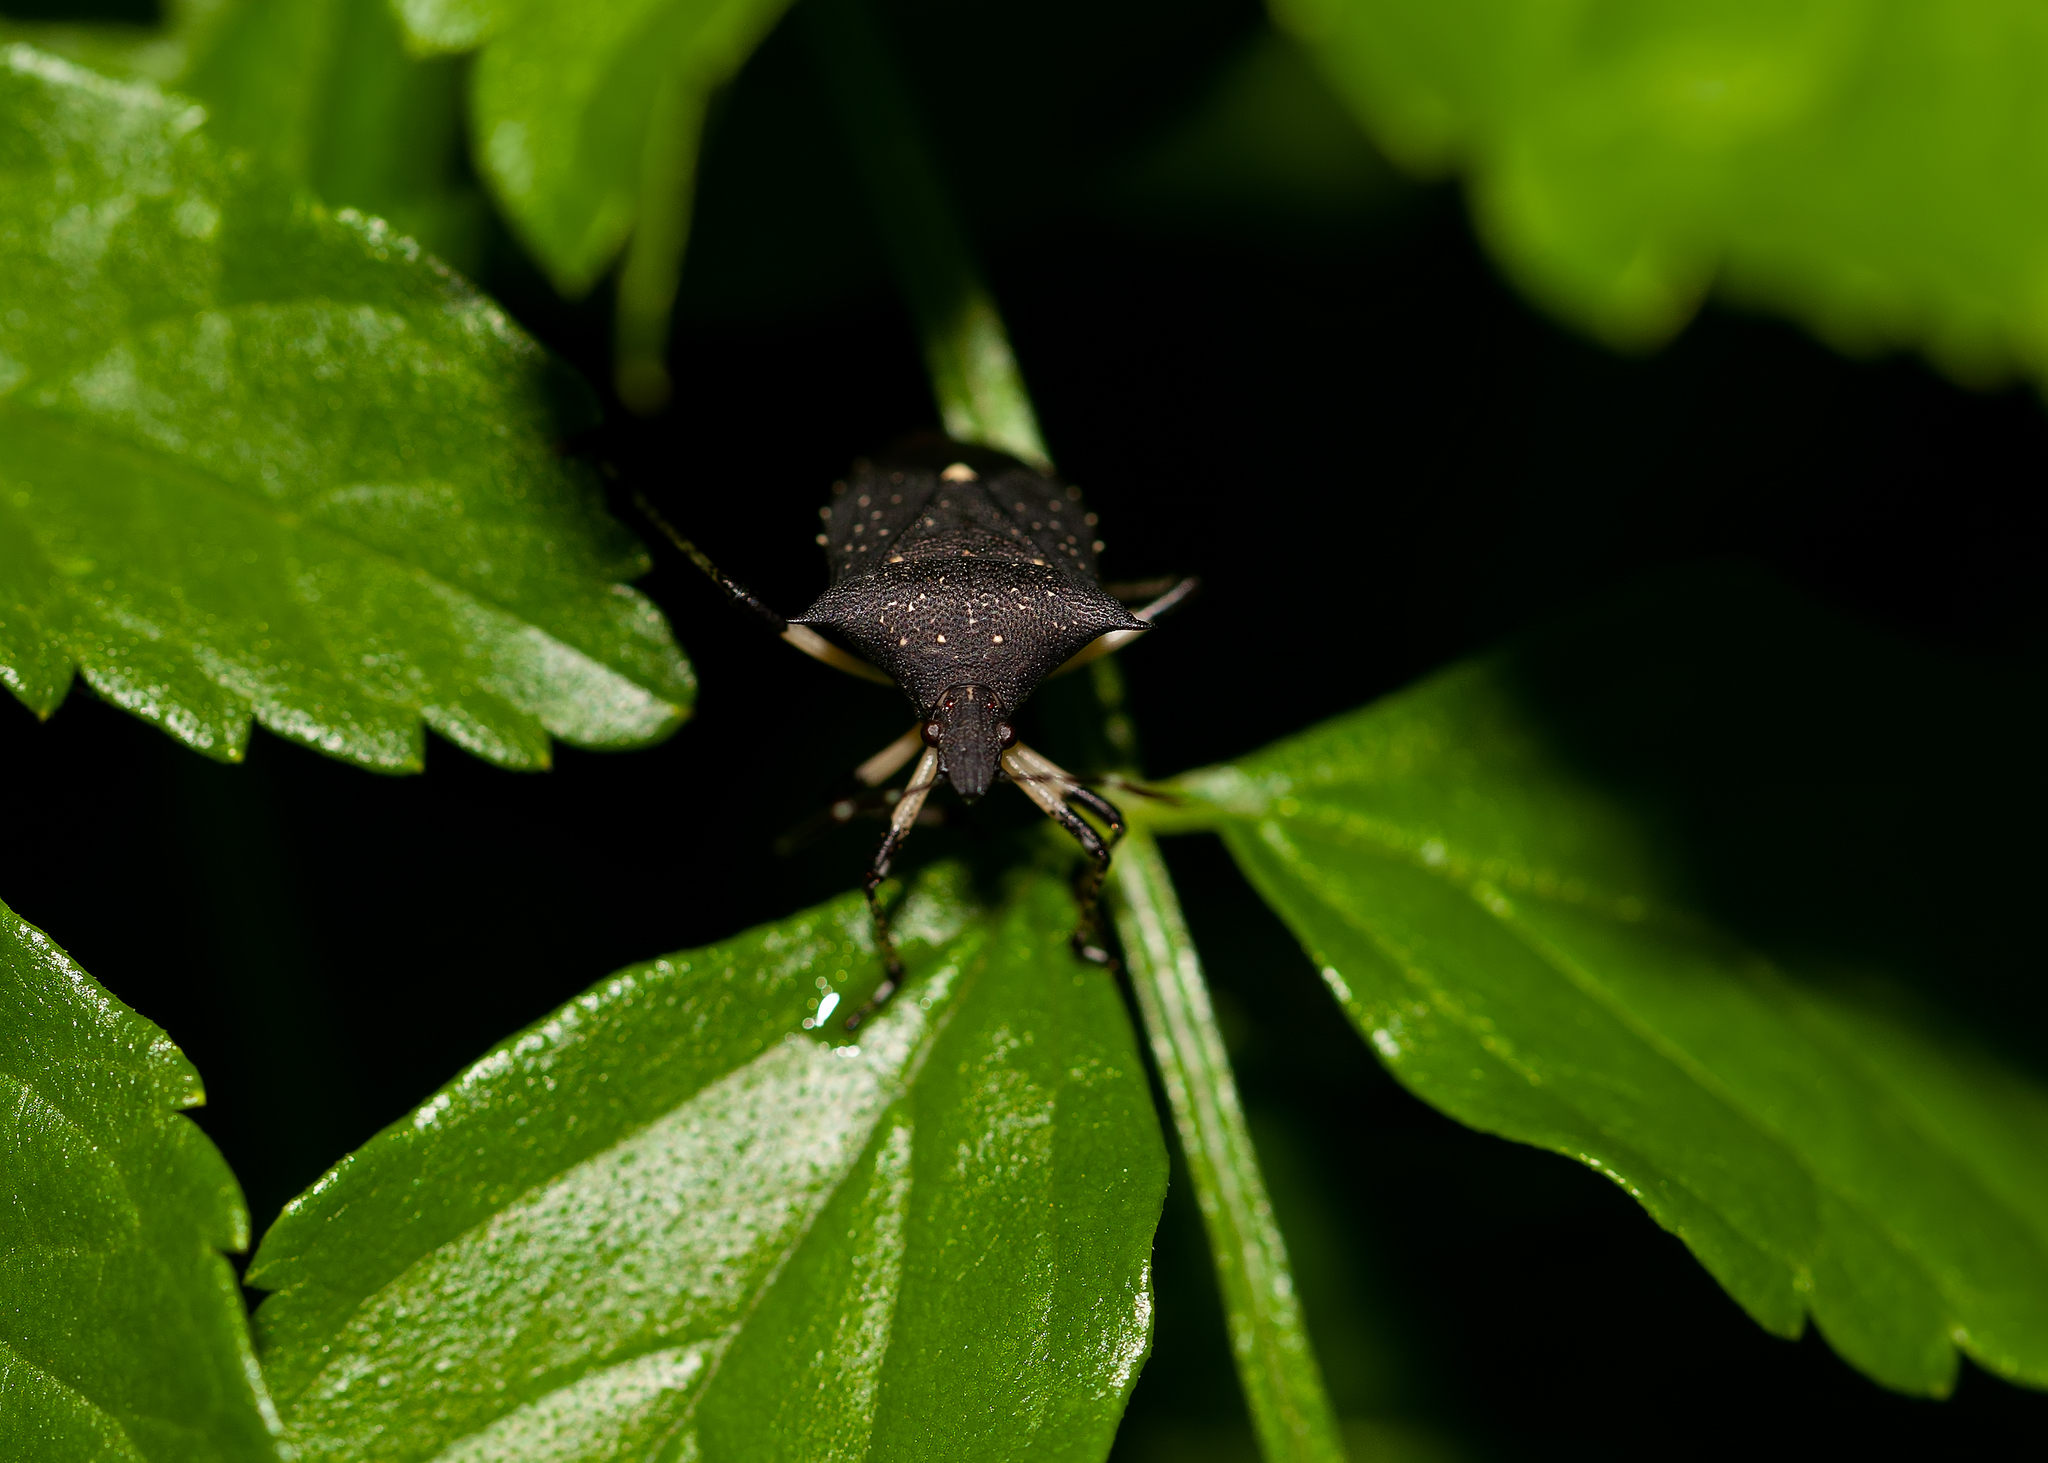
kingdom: Animalia
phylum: Arthropoda
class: Insecta
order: Hemiptera
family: Pentatomidae
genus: Proxys
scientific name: Proxys punctulatus
